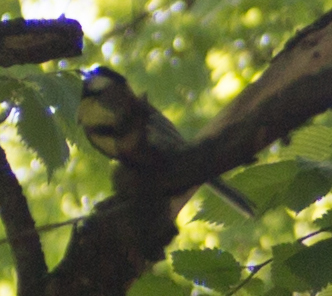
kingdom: Animalia
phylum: Chordata
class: Aves
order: Passeriformes
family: Paridae
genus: Parus
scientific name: Parus major
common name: Great tit
